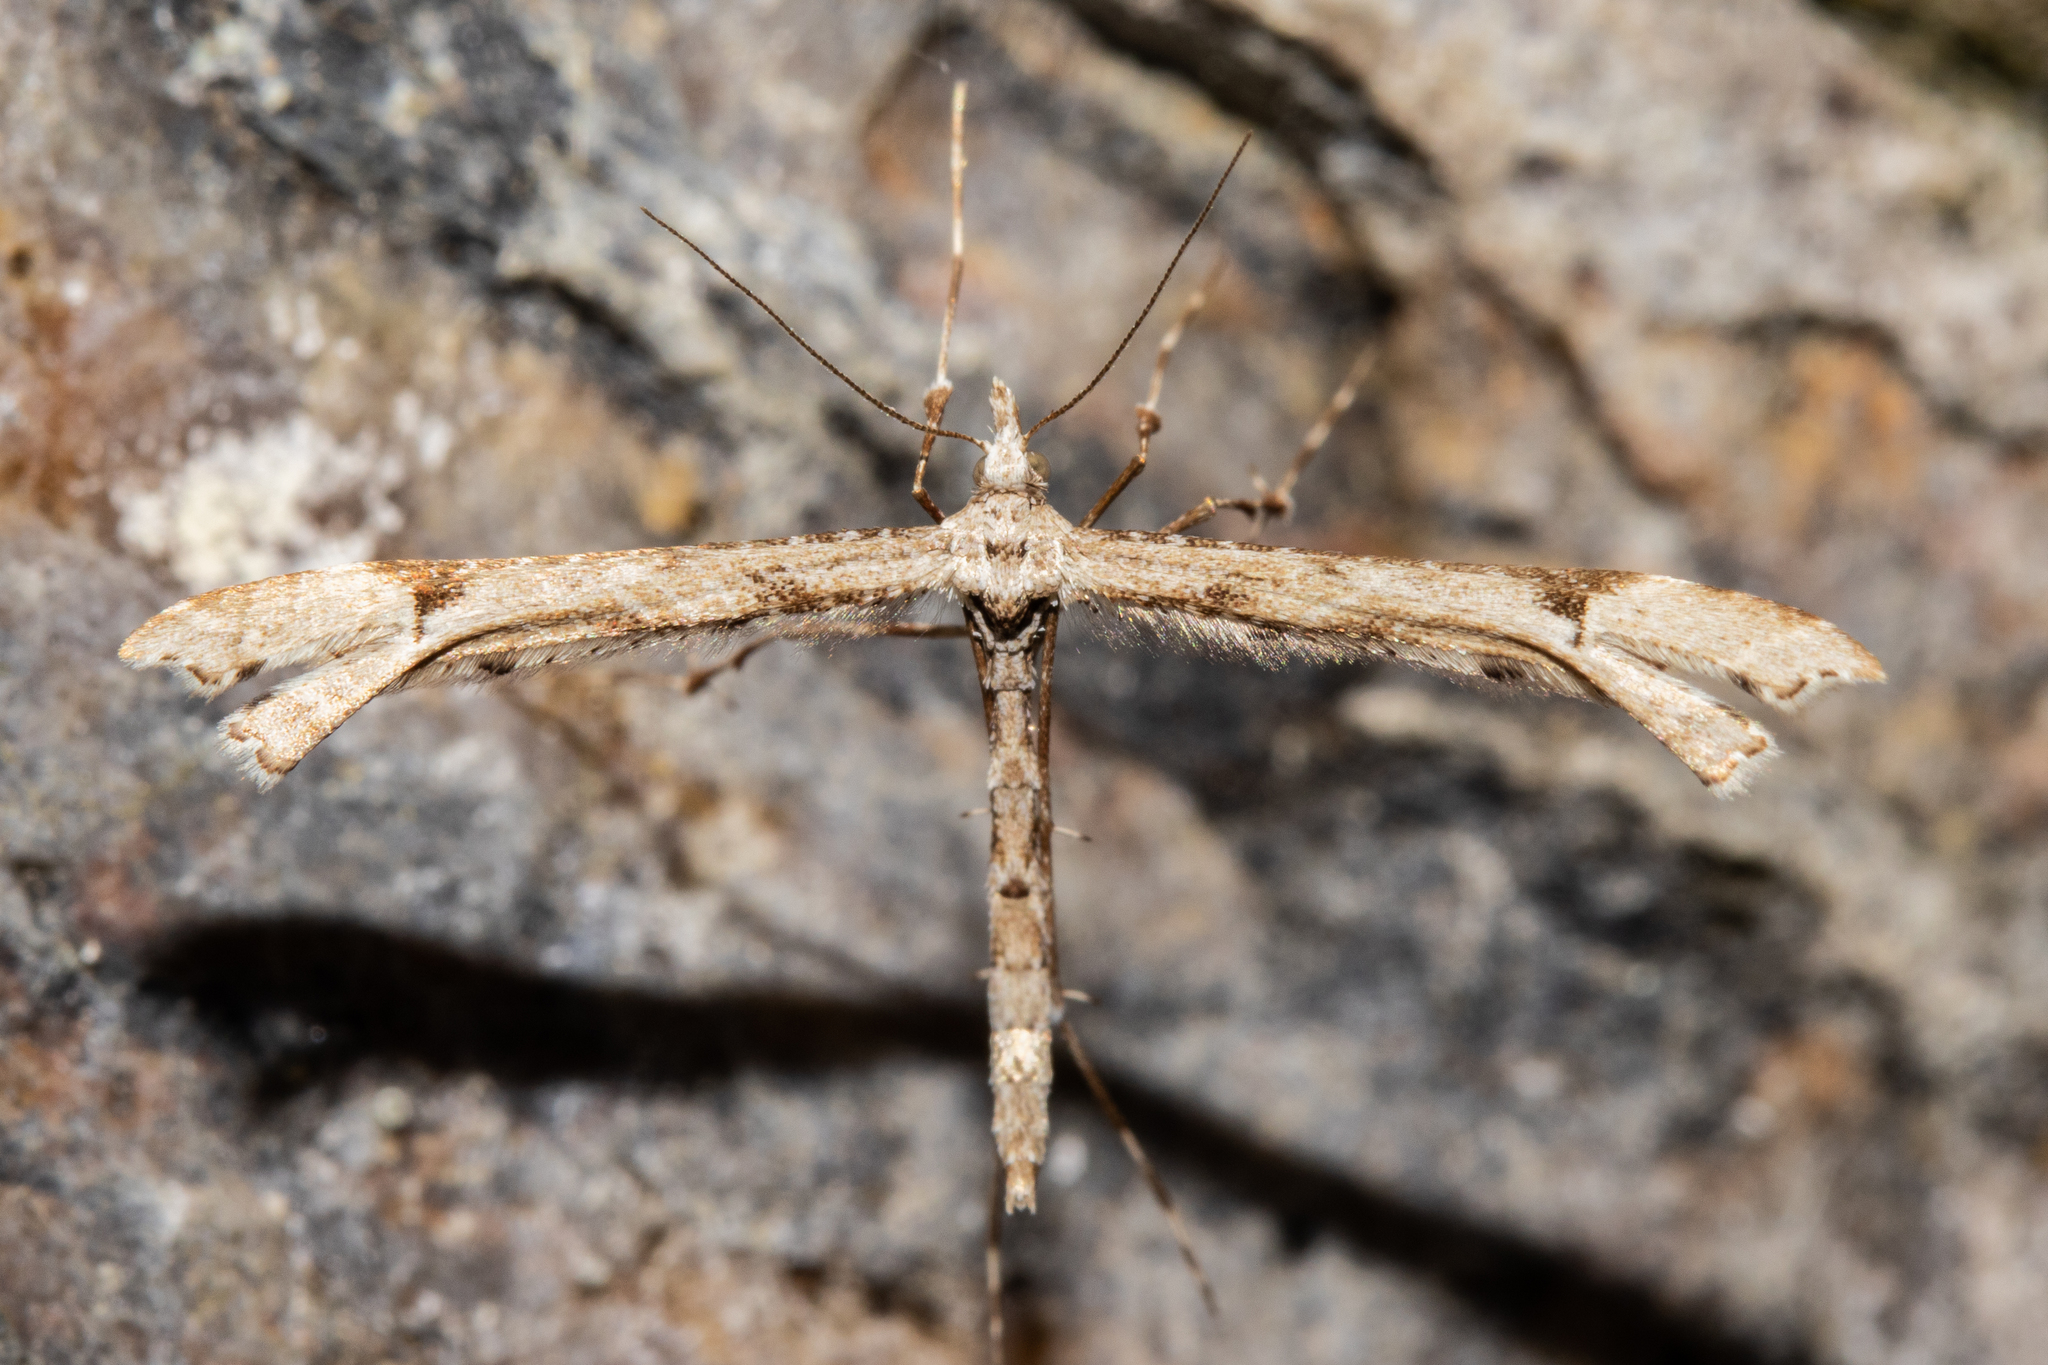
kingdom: Animalia
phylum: Arthropoda
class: Insecta
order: Lepidoptera
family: Pterophoridae
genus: Amblyptilia
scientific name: Amblyptilia repletalis
